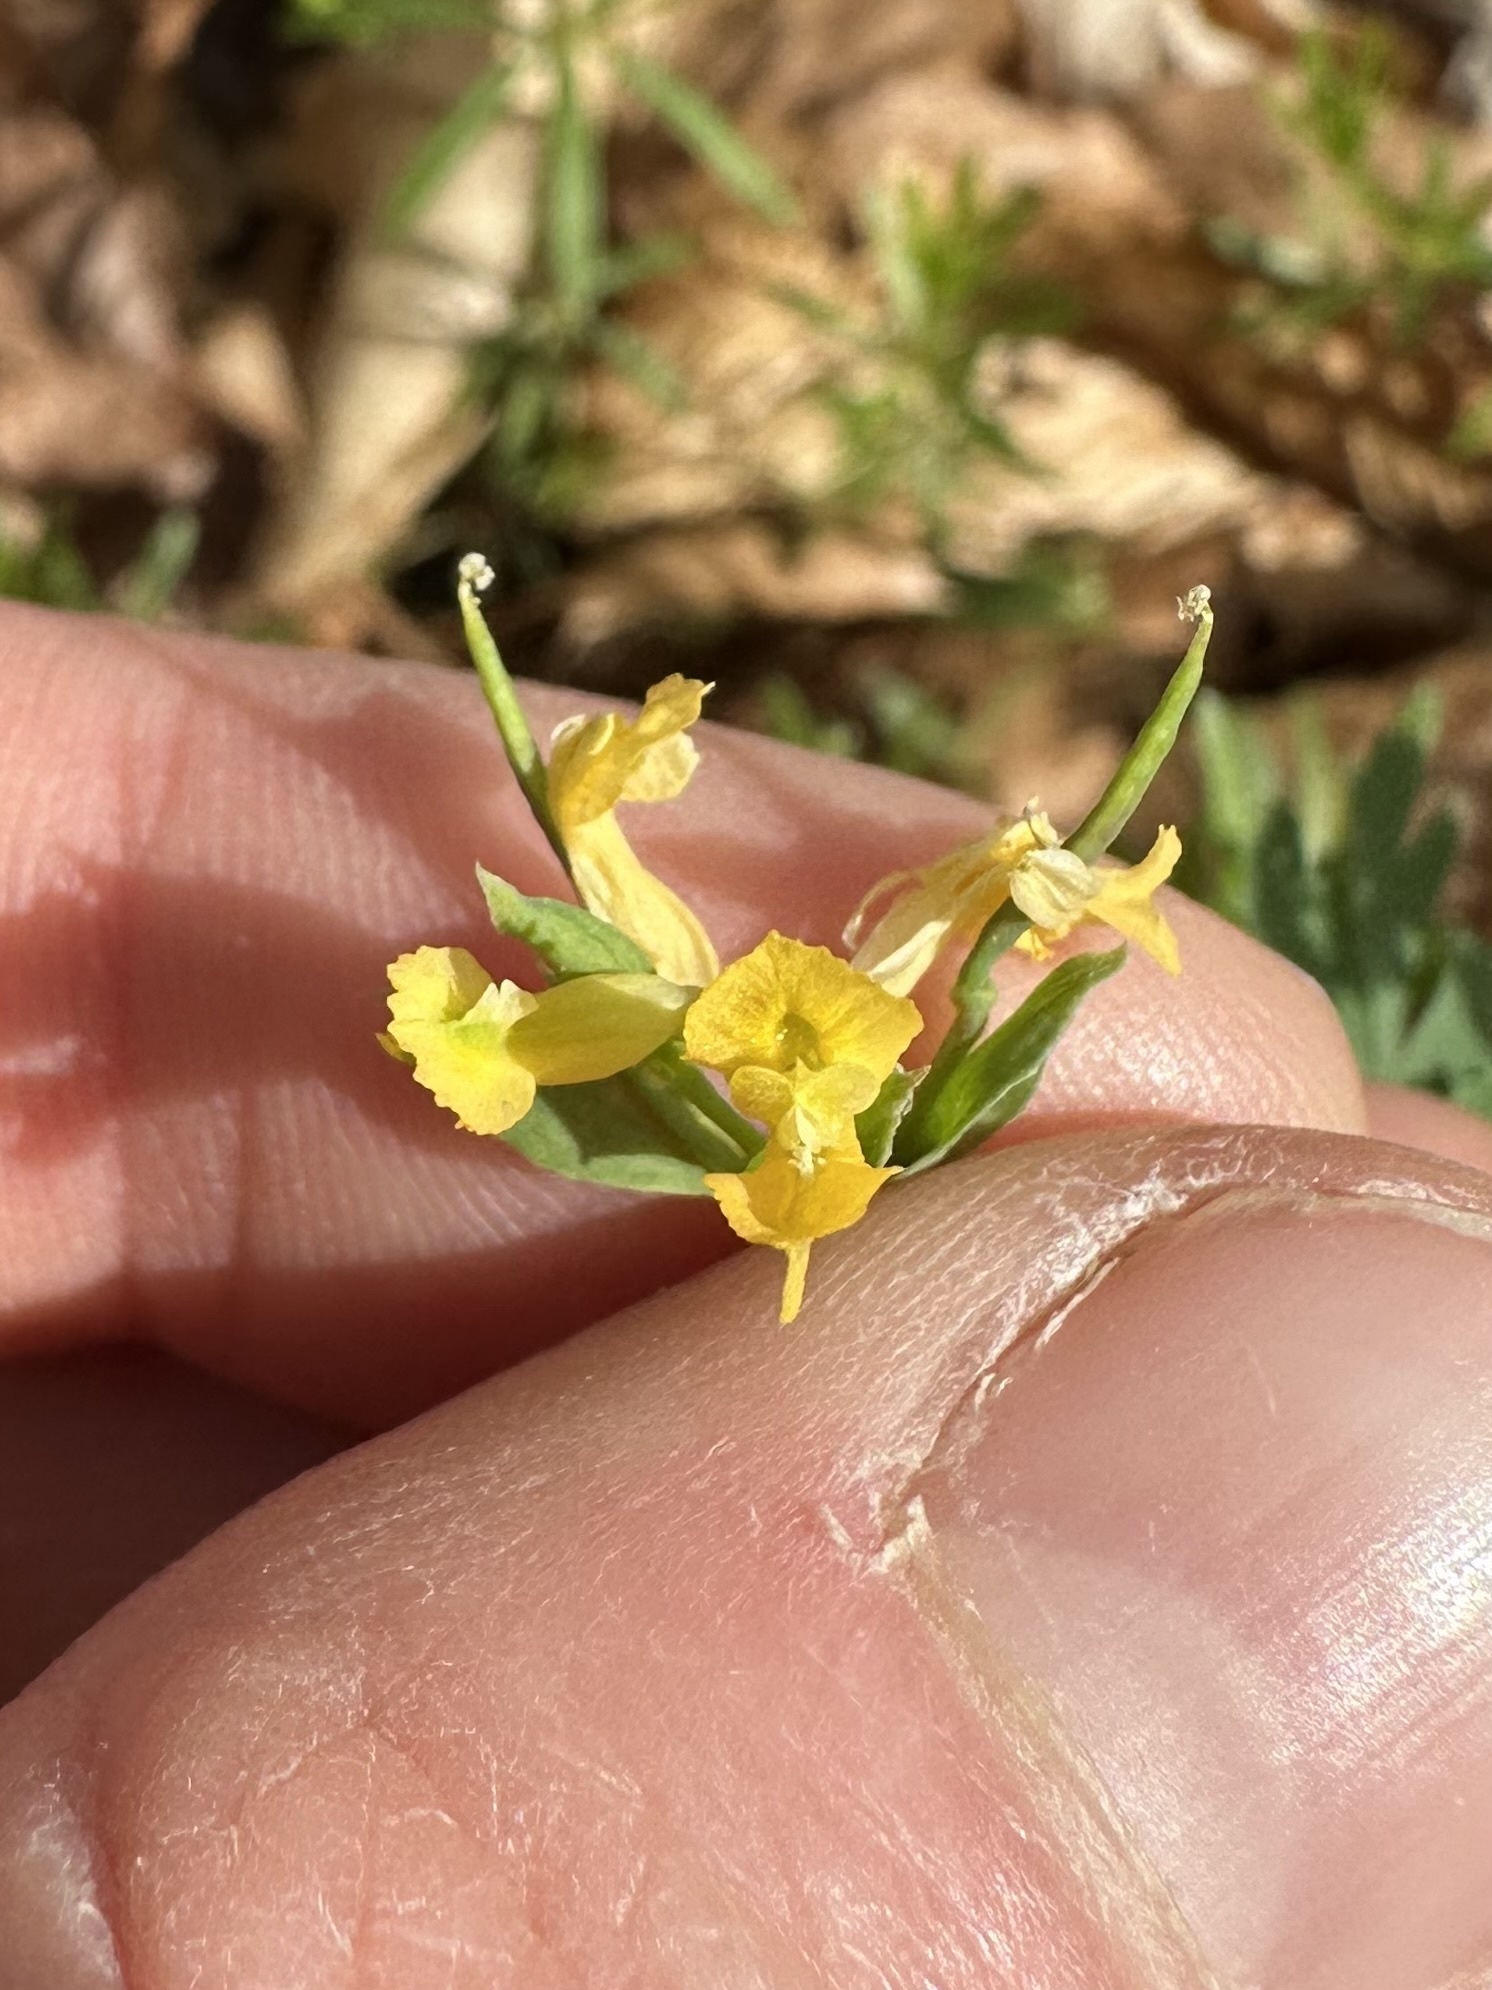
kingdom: Plantae
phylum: Tracheophyta
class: Magnoliopsida
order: Ranunculales
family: Papaveraceae
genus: Corydalis
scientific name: Corydalis flavula
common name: Yellow corydalis
